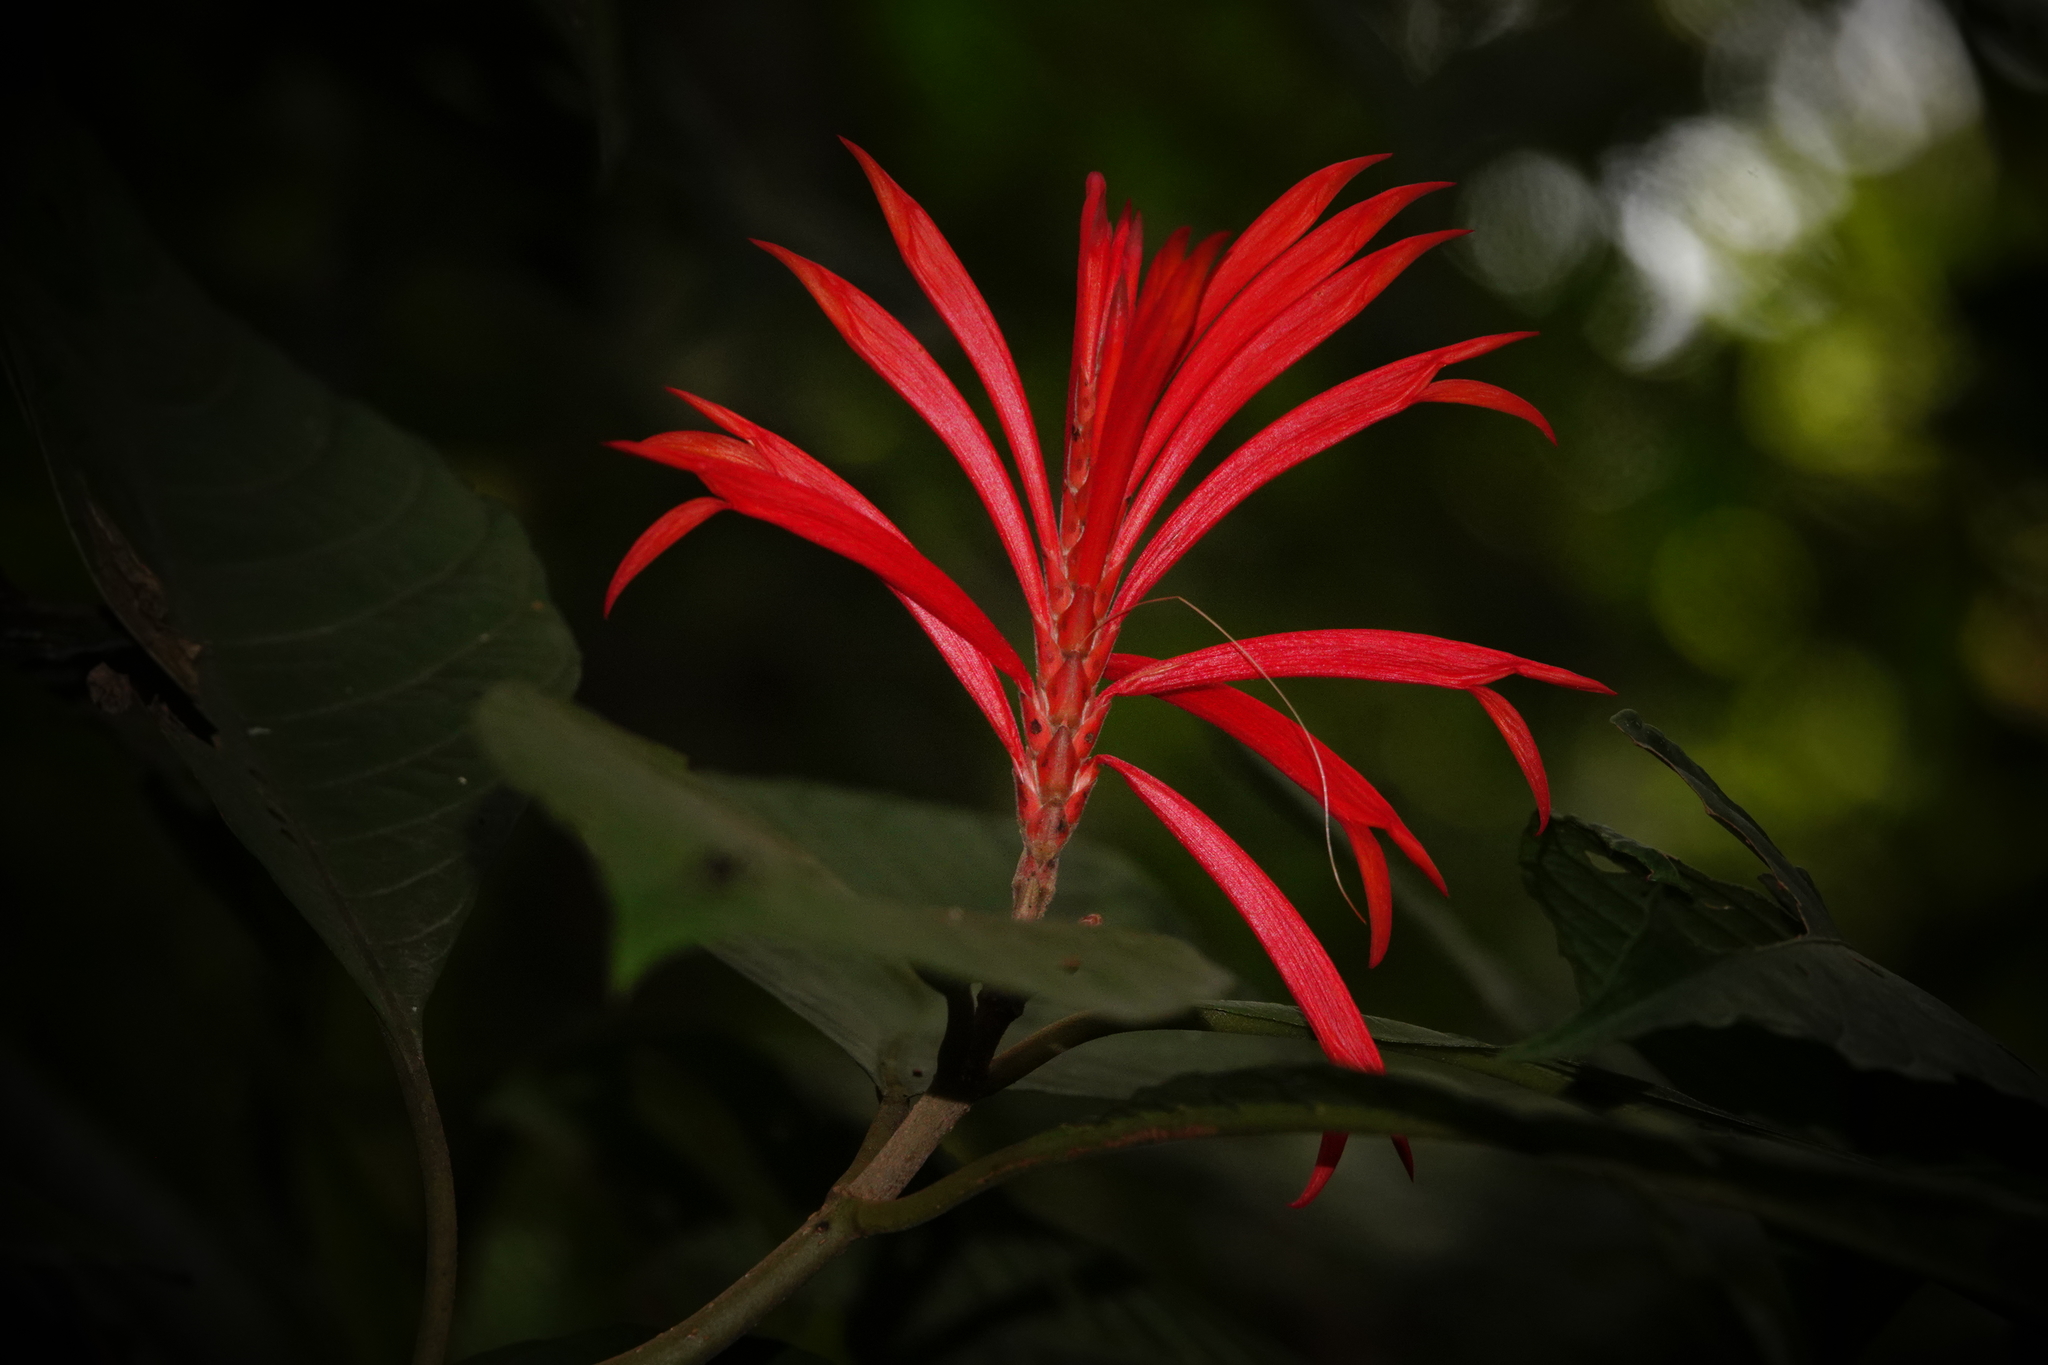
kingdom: Plantae
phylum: Tracheophyta
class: Magnoliopsida
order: Lamiales
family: Acanthaceae
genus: Aphelandra
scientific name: Aphelandra scabra
